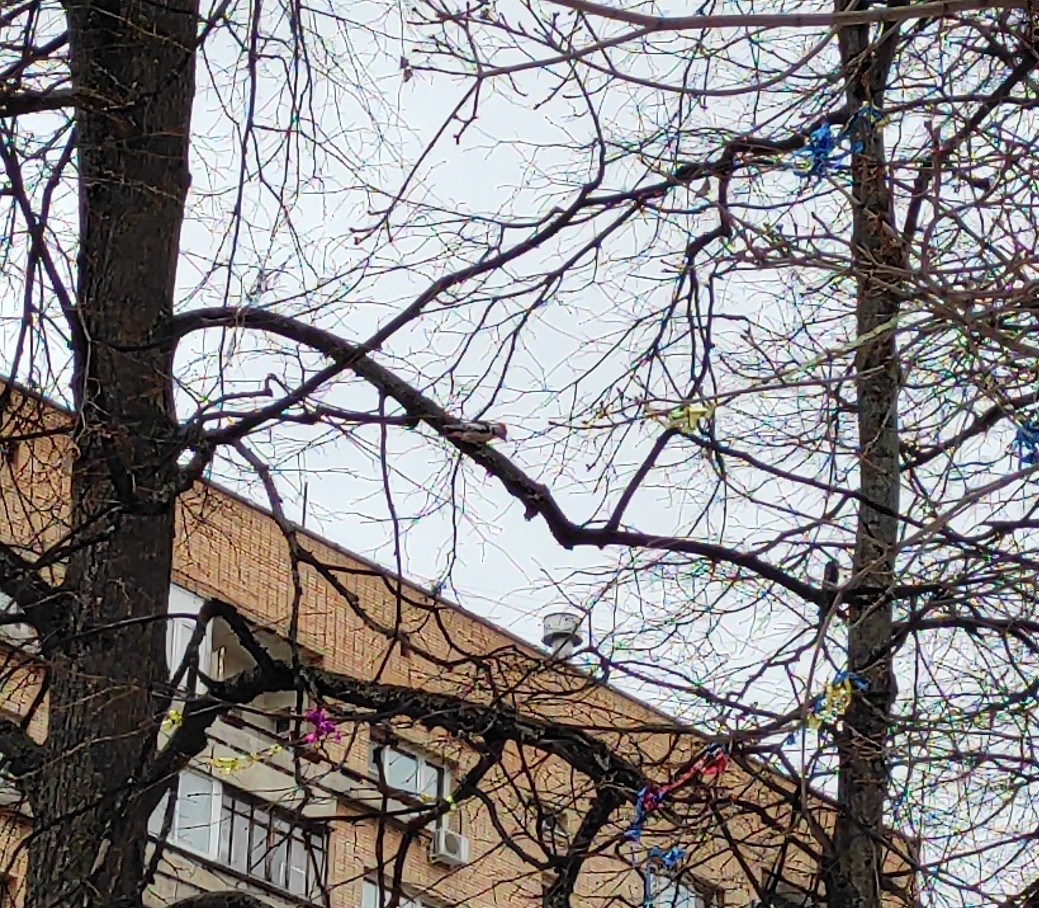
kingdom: Animalia
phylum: Chordata
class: Aves
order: Piciformes
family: Picidae
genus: Dendrocoptes
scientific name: Dendrocoptes medius
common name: Middle spotted woodpecker
